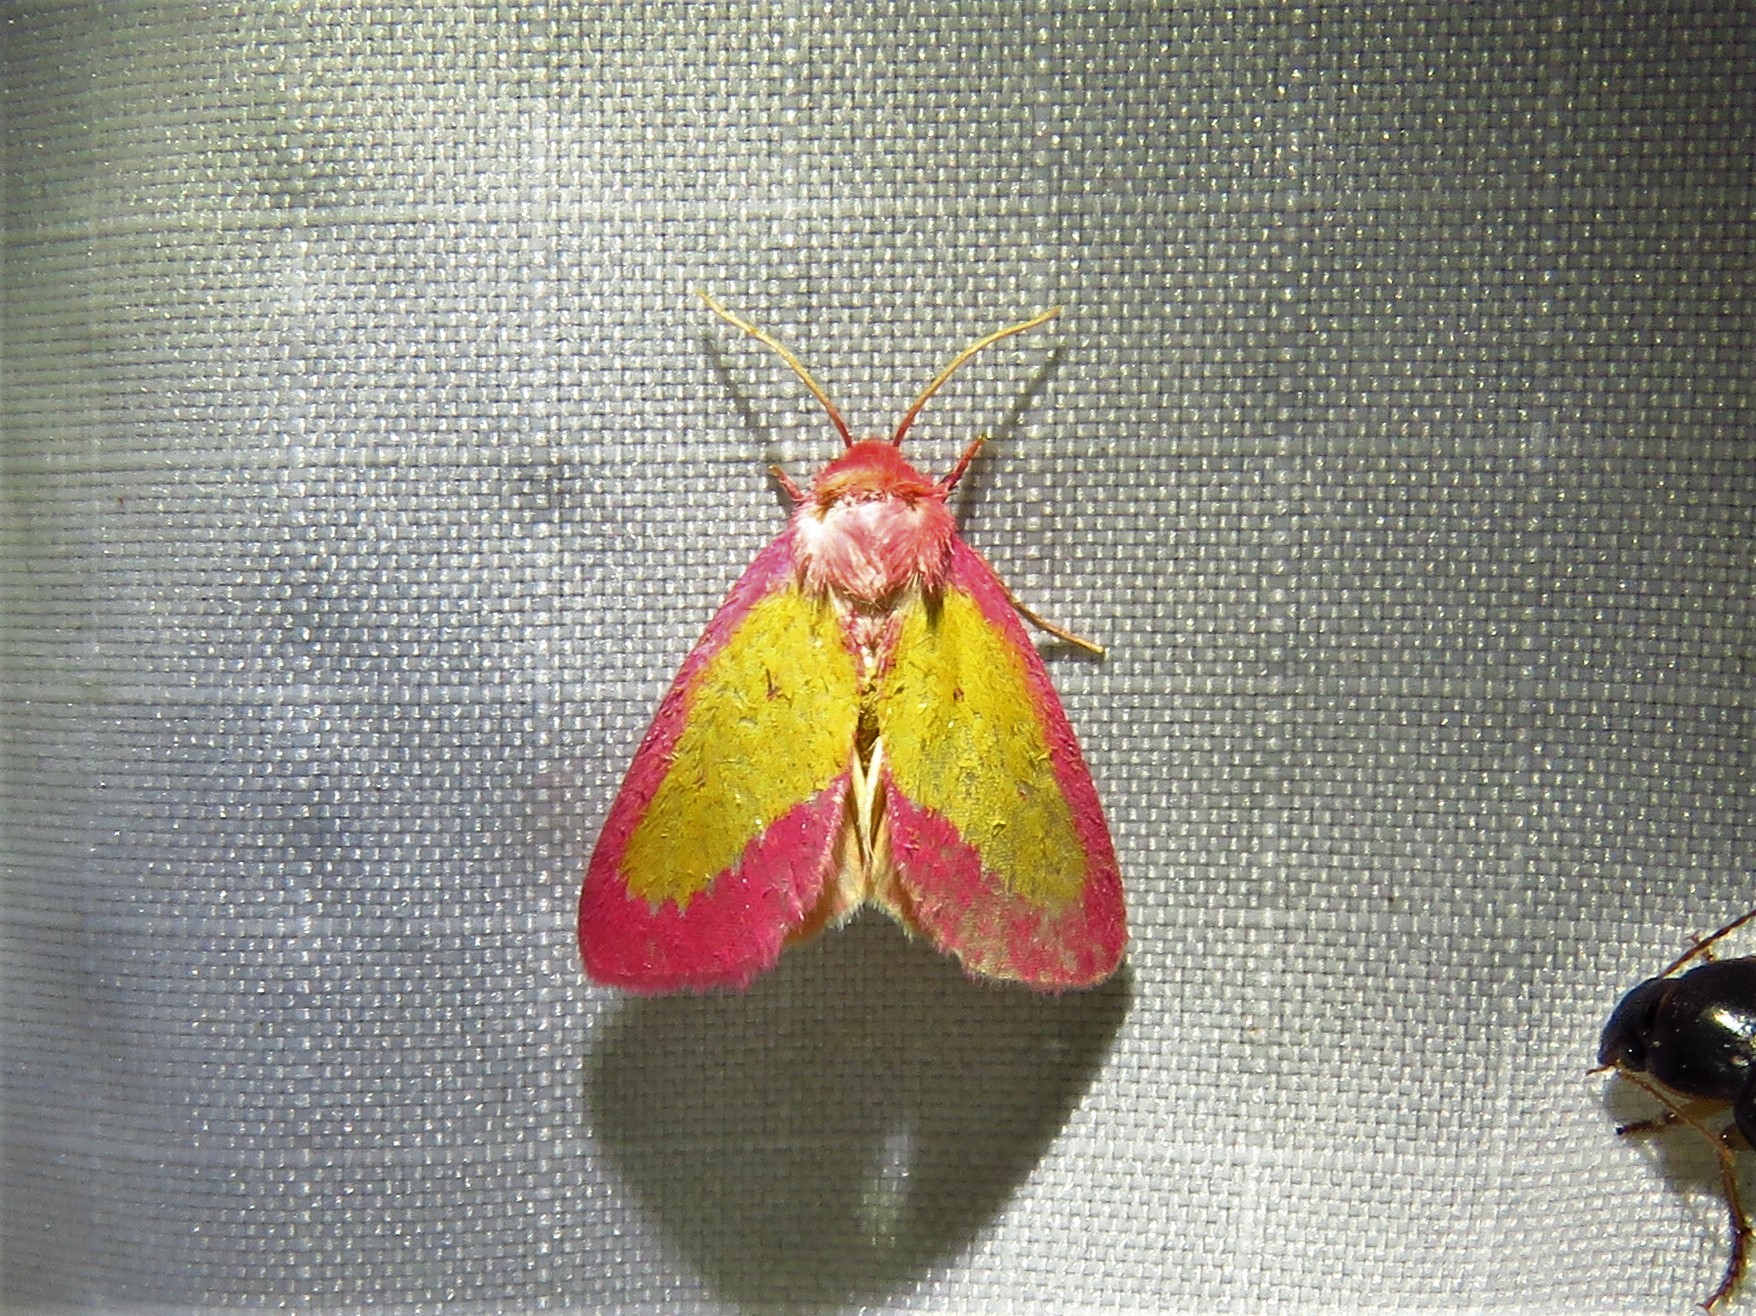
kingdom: Animalia
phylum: Arthropoda
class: Insecta
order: Lepidoptera
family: Noctuidae
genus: Derrima
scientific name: Derrima stellata
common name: Pink star moth
